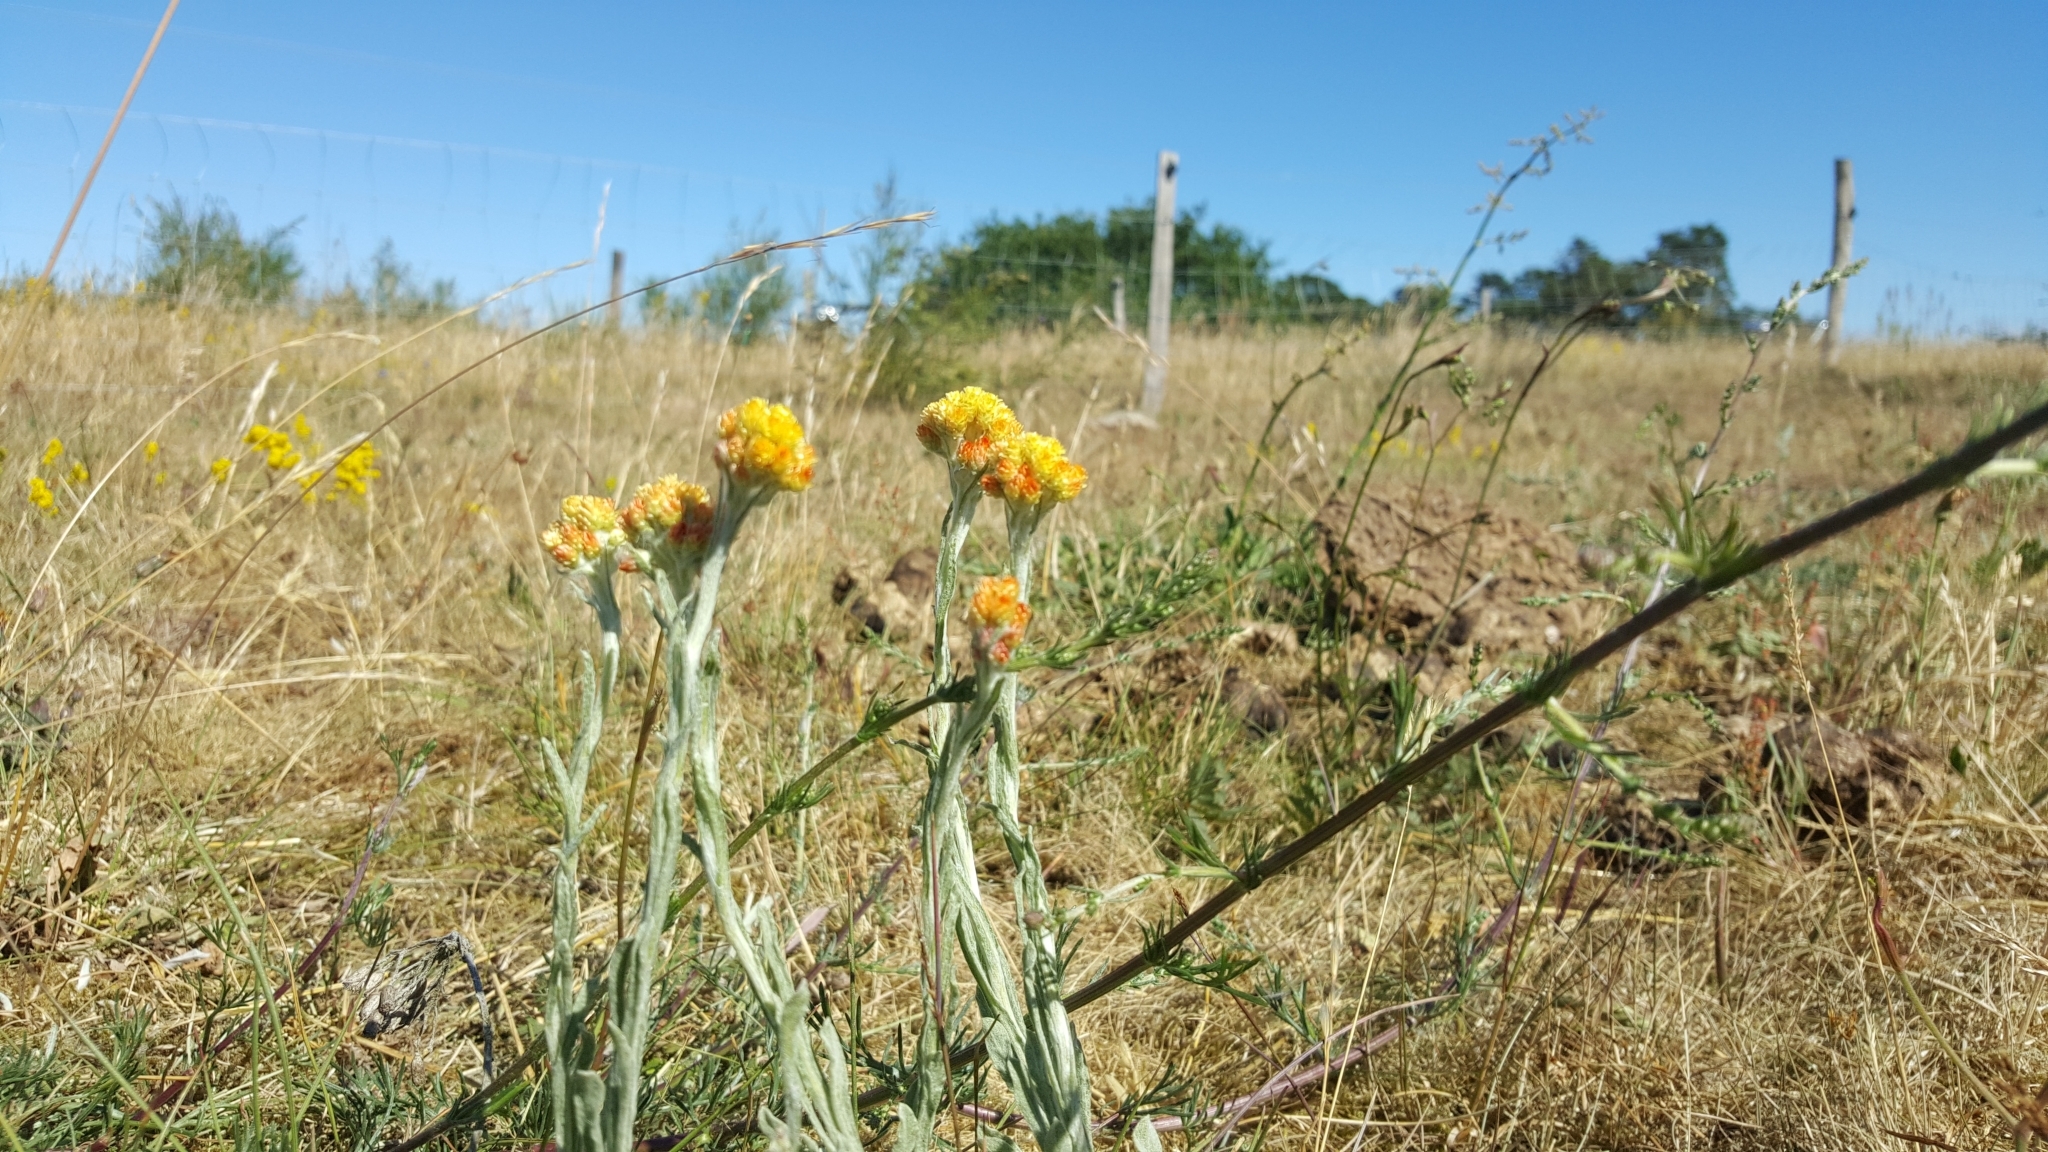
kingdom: Plantae
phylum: Tracheophyta
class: Magnoliopsida
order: Asterales
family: Asteraceae
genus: Helichrysum
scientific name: Helichrysum arenarium
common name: Strawflower
